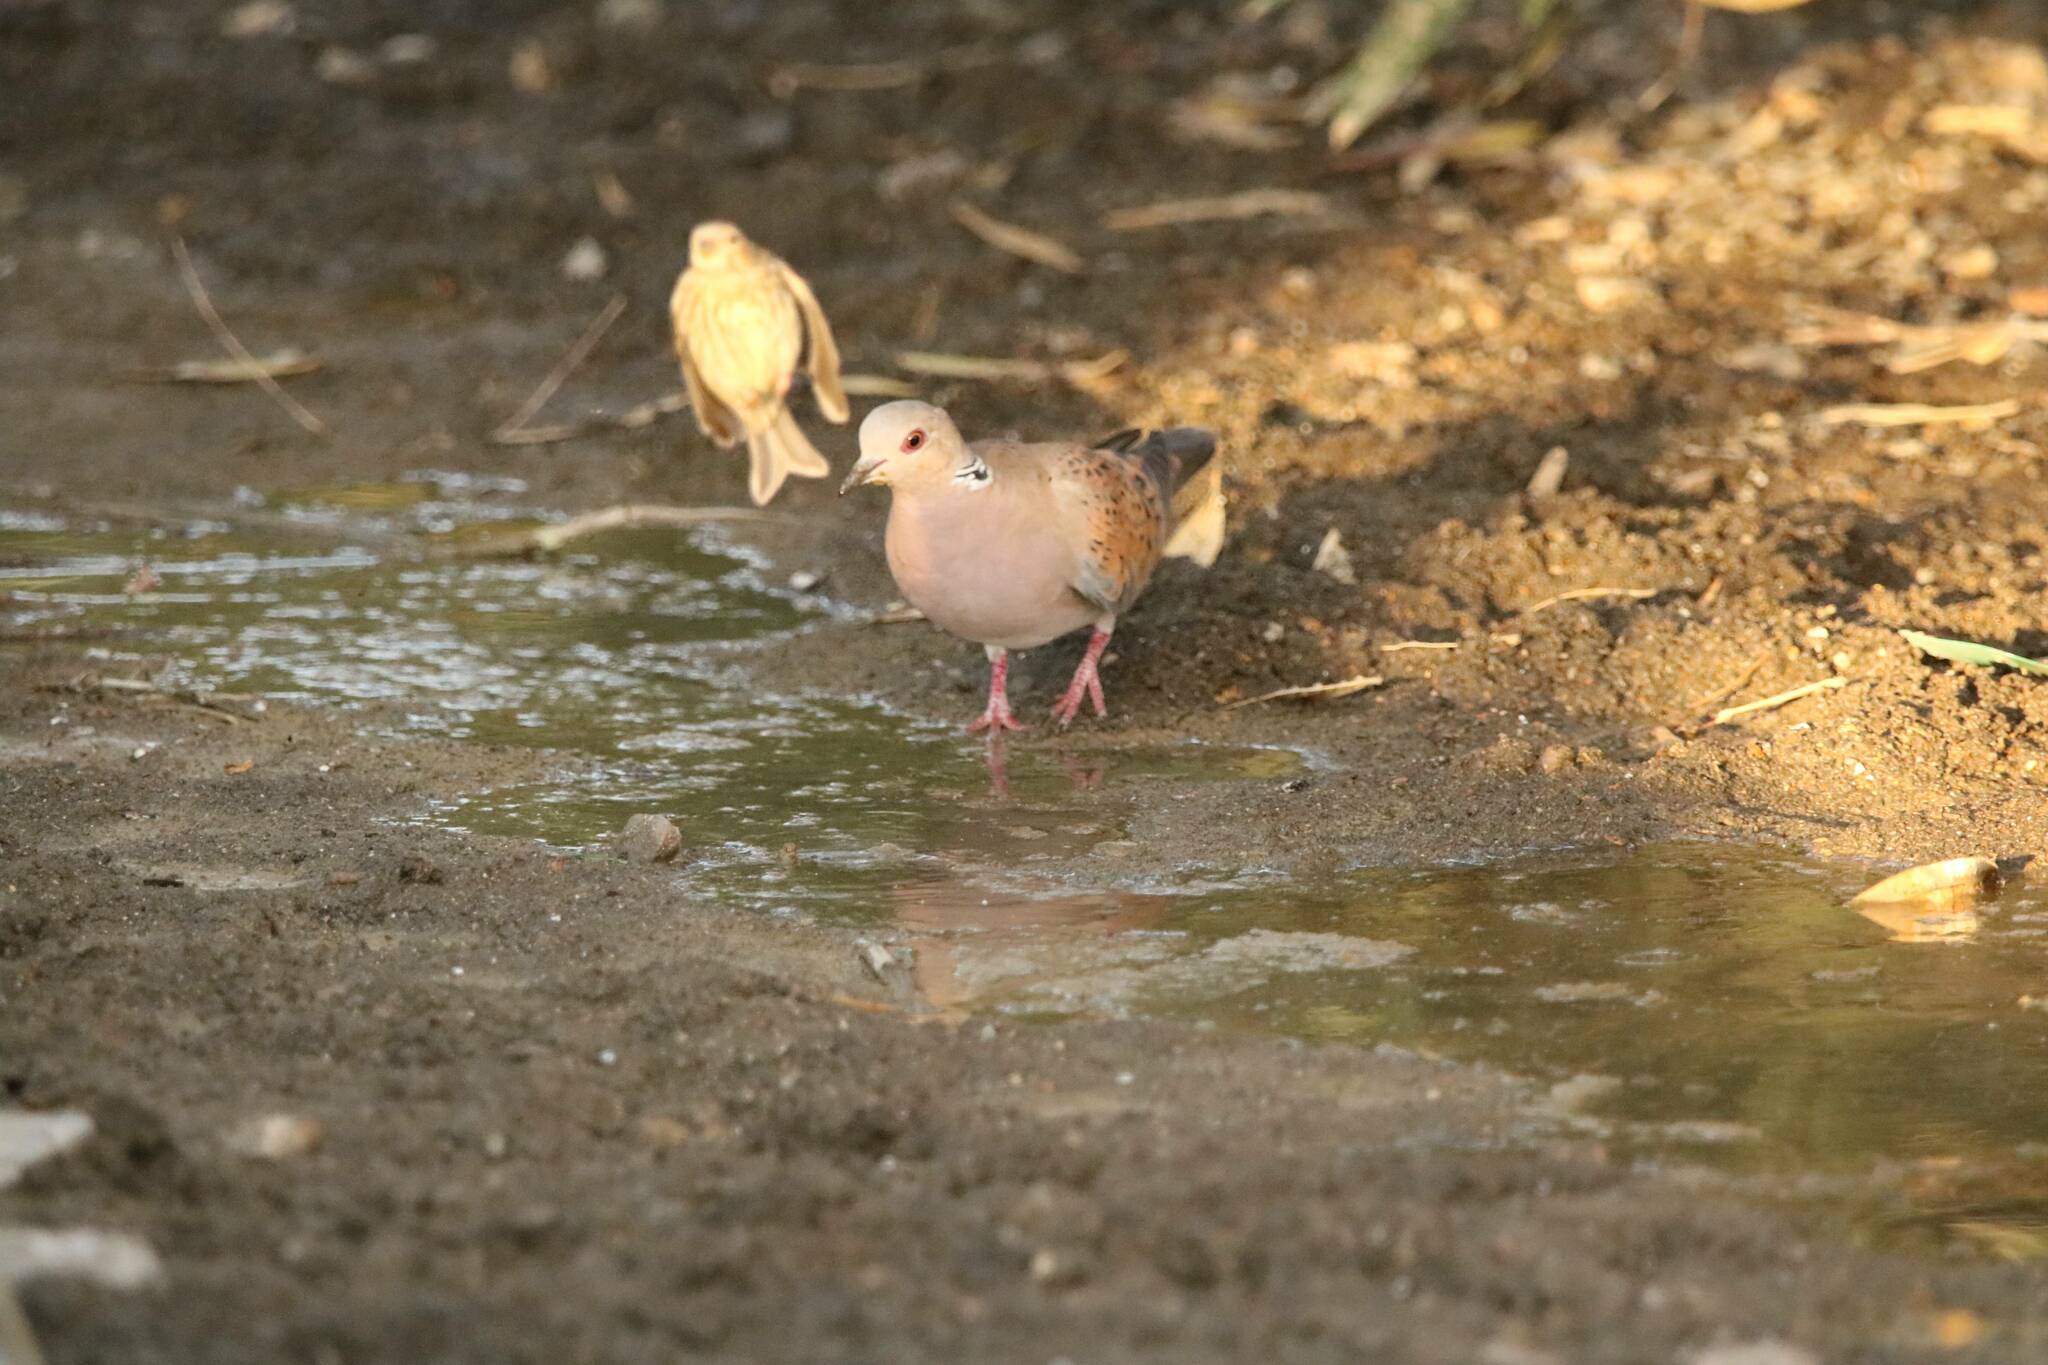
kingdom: Animalia
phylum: Chordata
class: Aves
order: Columbiformes
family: Columbidae
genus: Streptopelia
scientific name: Streptopelia turtur
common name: European turtle dove
